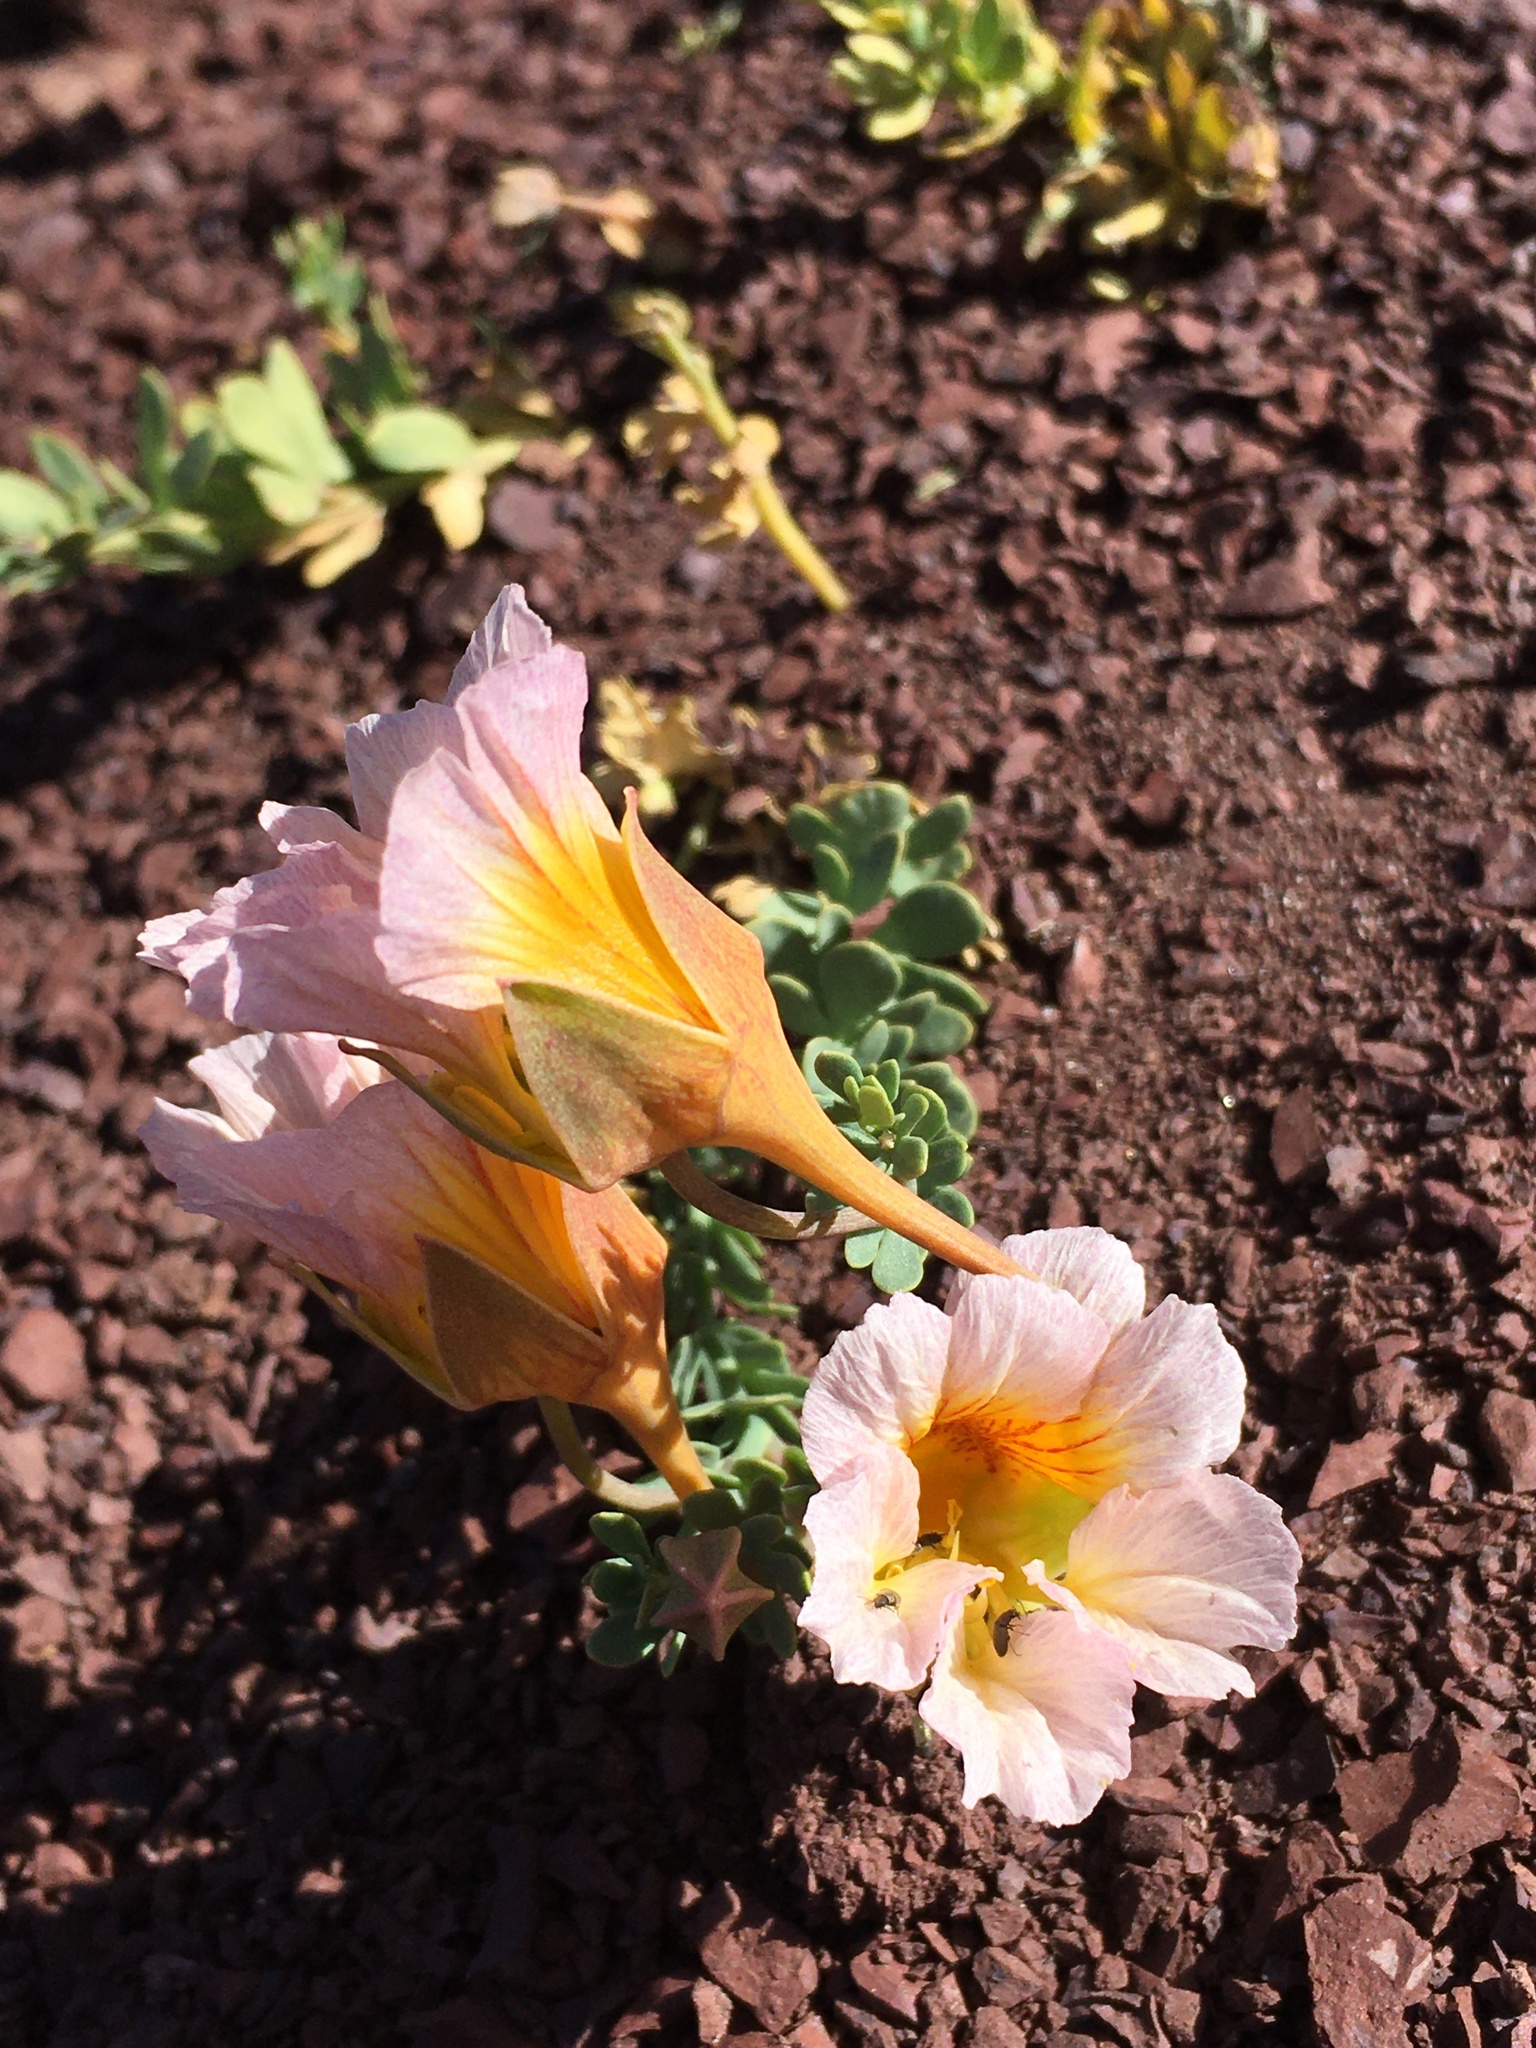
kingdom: Plantae
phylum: Tracheophyta
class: Magnoliopsida
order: Brassicales
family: Tropaeolaceae
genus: Tropaeolum
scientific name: Tropaeolum sessilifolium
